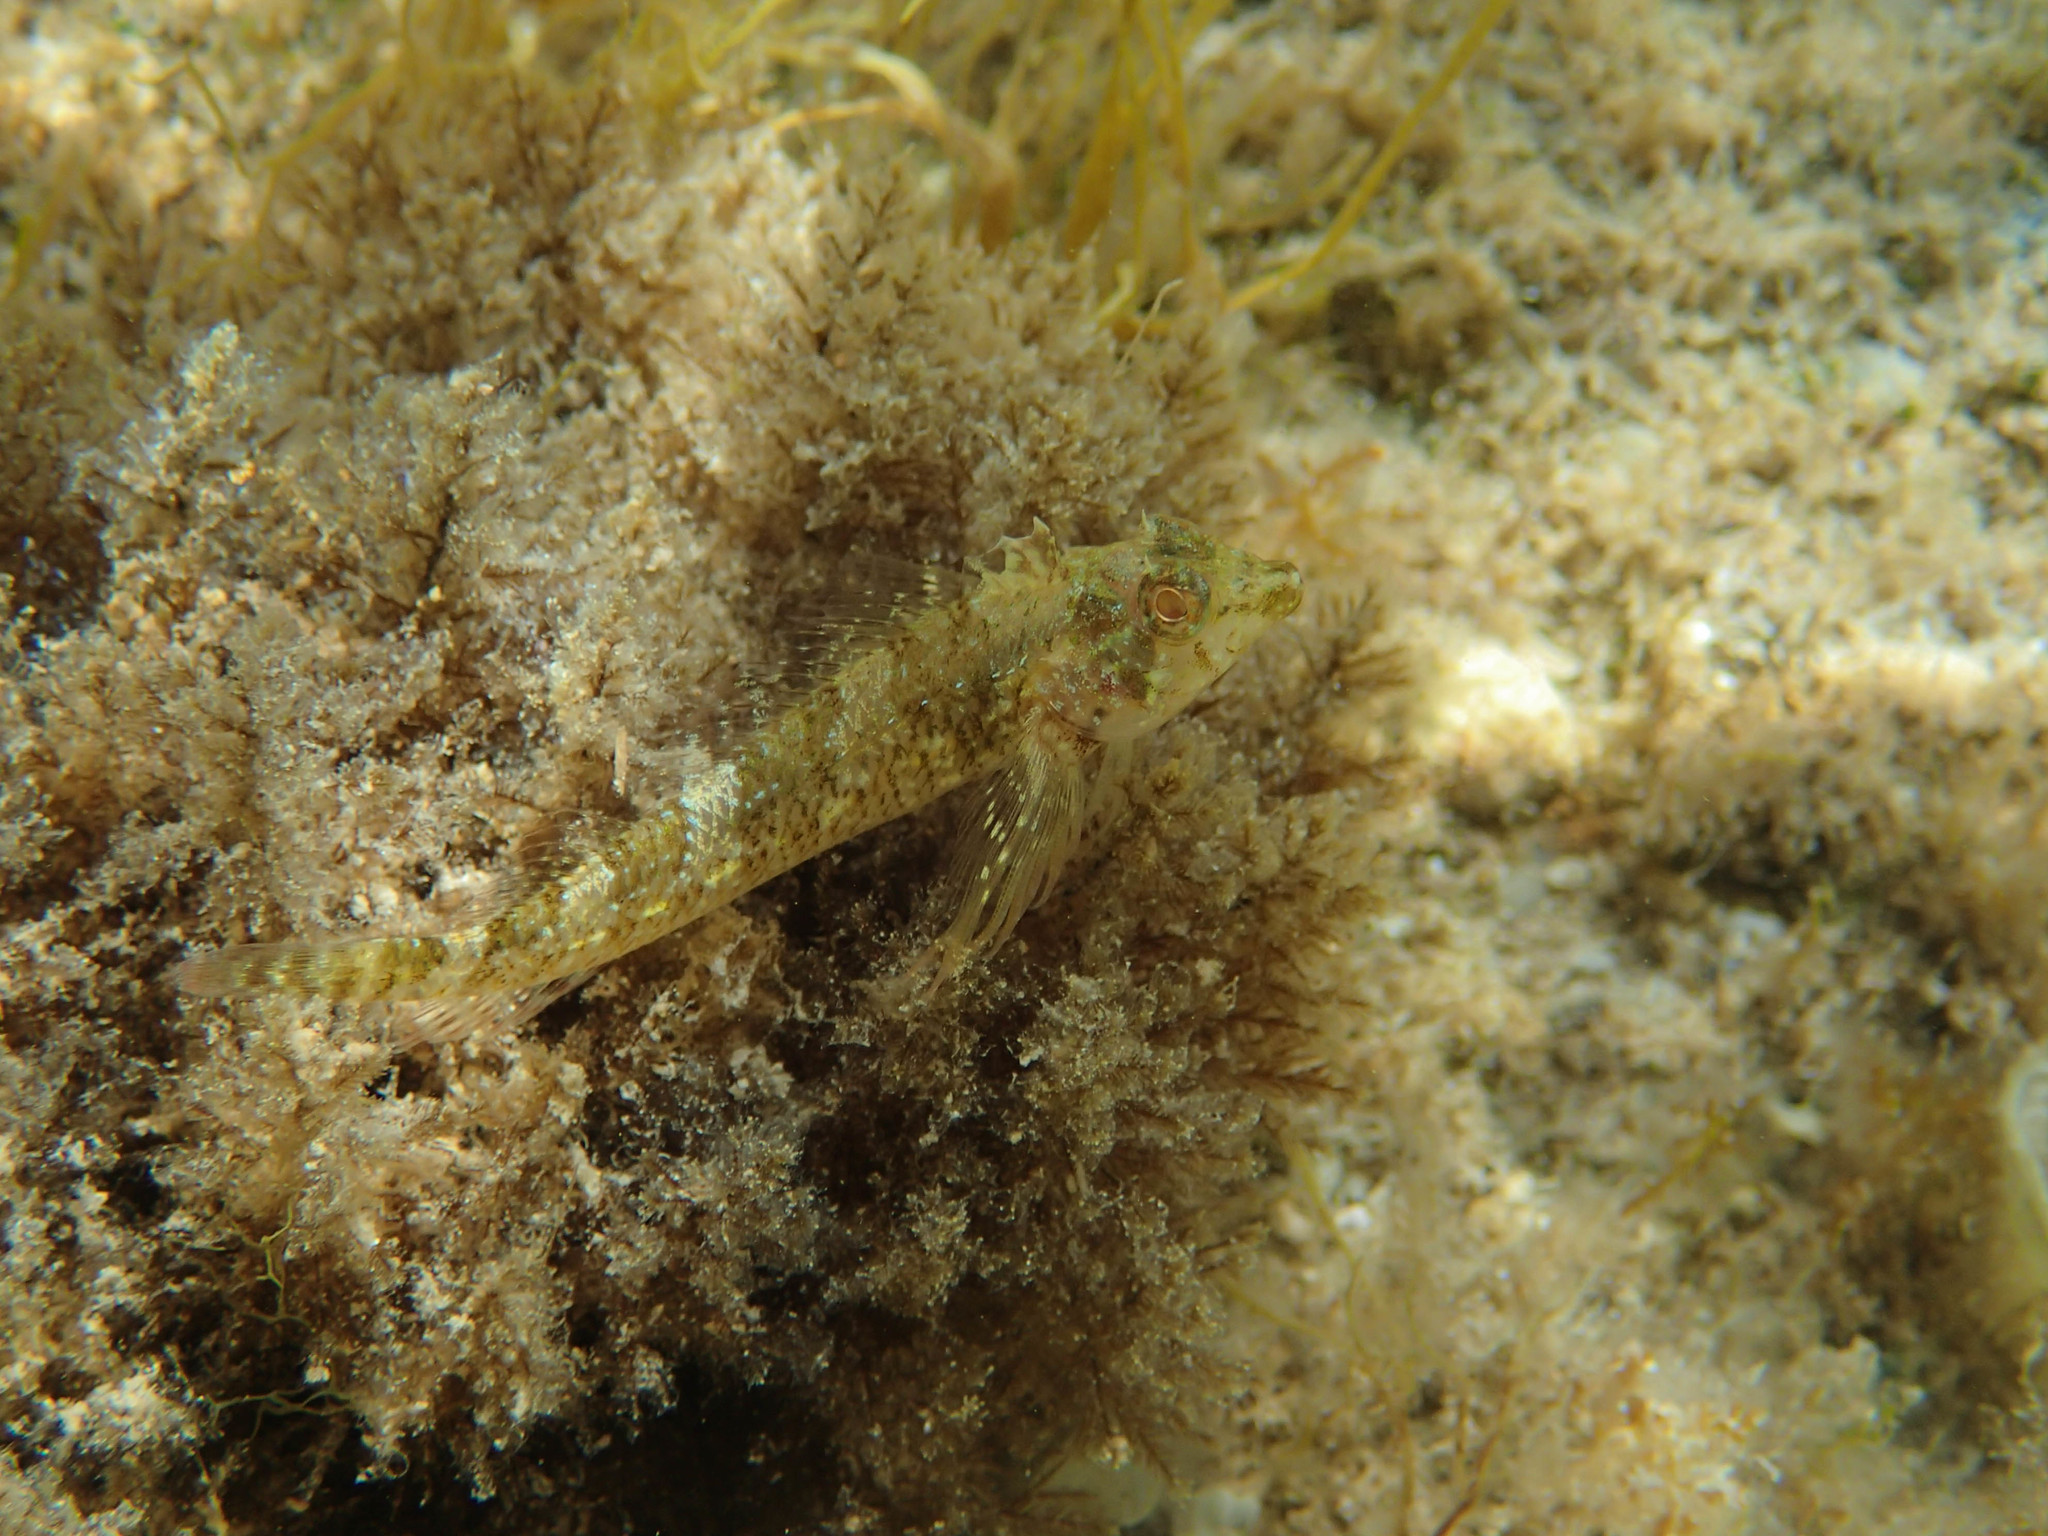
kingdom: Animalia
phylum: Chordata
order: Perciformes
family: Tripterygiidae
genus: Tripterygion
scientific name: Tripterygion tripteronotum
